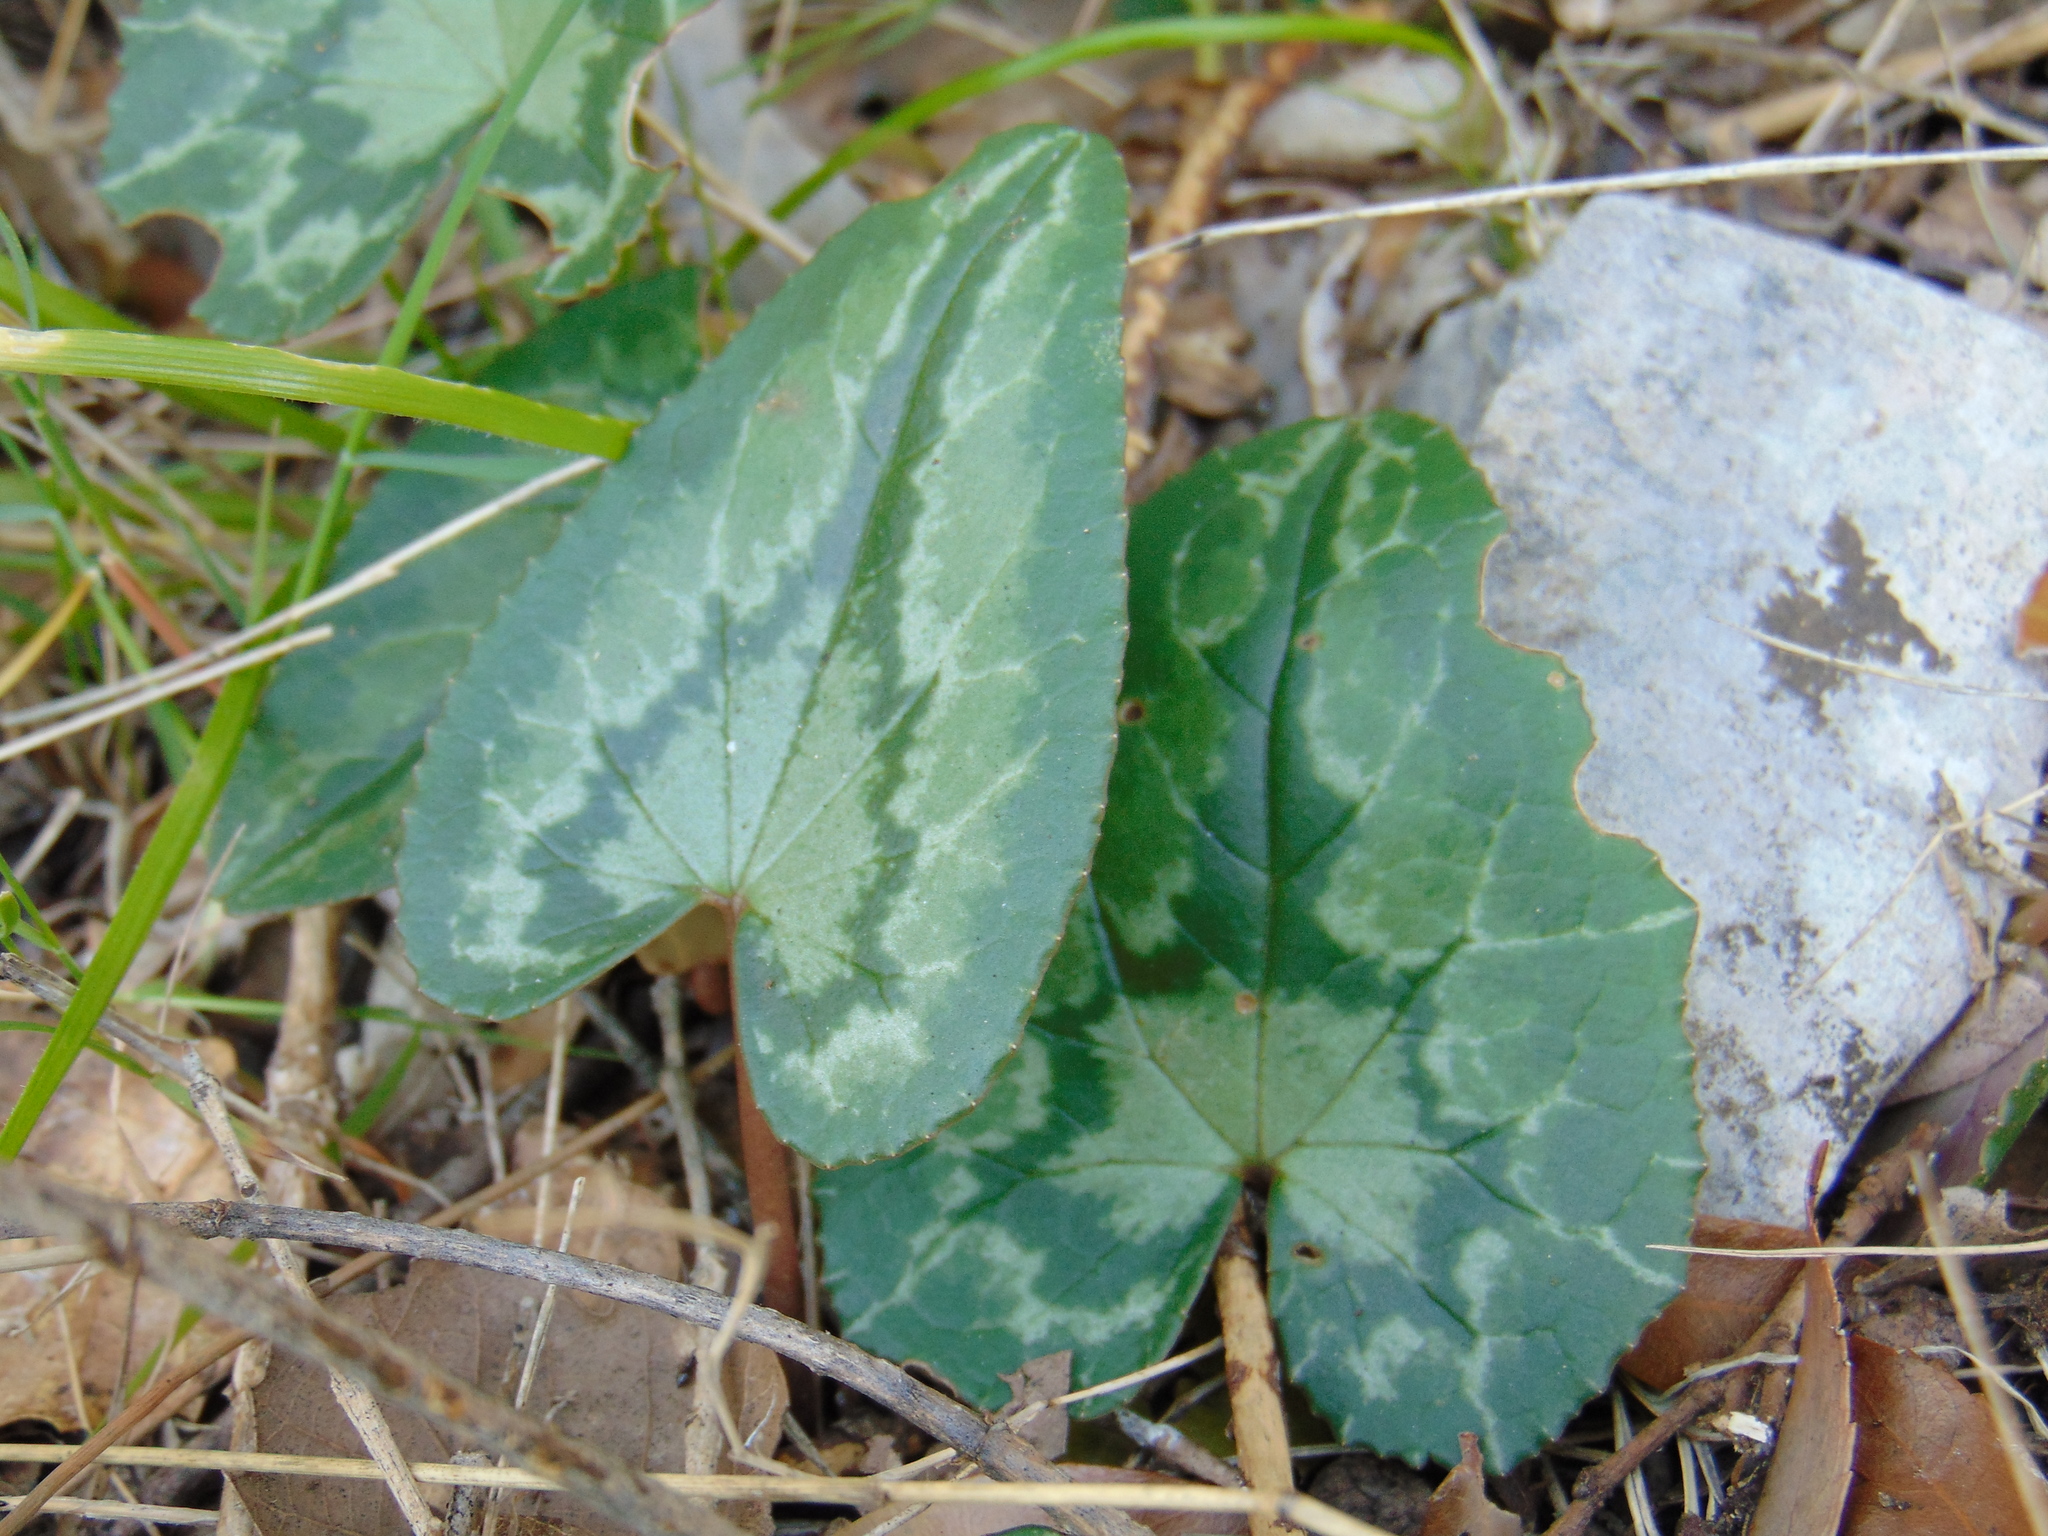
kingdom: Plantae
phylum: Tracheophyta
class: Magnoliopsida
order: Ericales
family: Primulaceae
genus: Cyclamen
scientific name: Cyclamen hederifolium
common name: Sowbread
